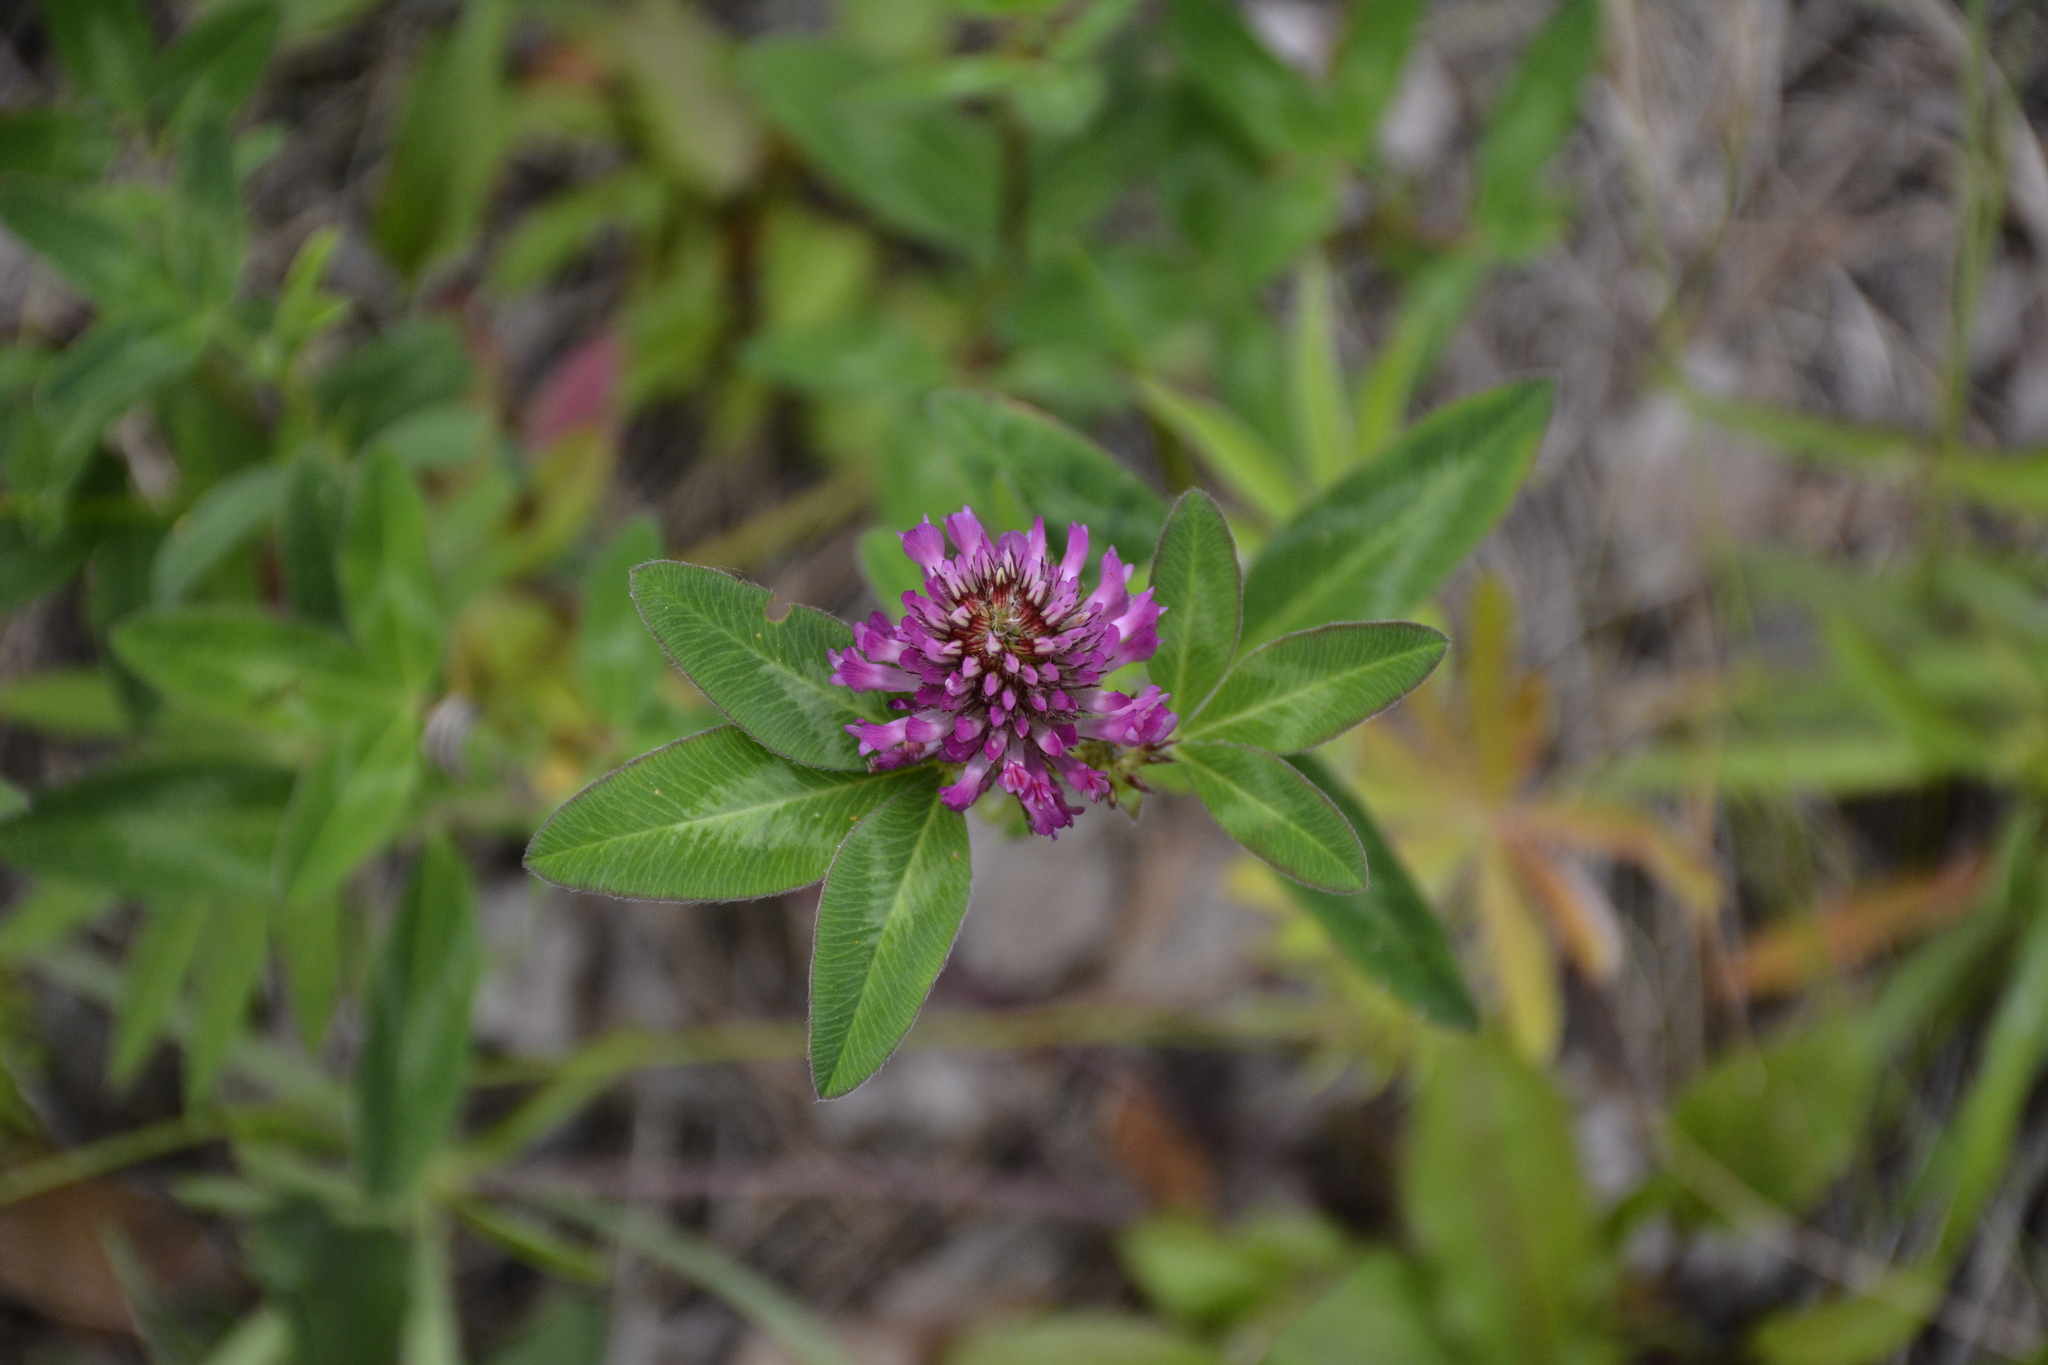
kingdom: Plantae
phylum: Tracheophyta
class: Magnoliopsida
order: Fabales
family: Fabaceae
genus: Trifolium
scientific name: Trifolium pratense
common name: Red clover
